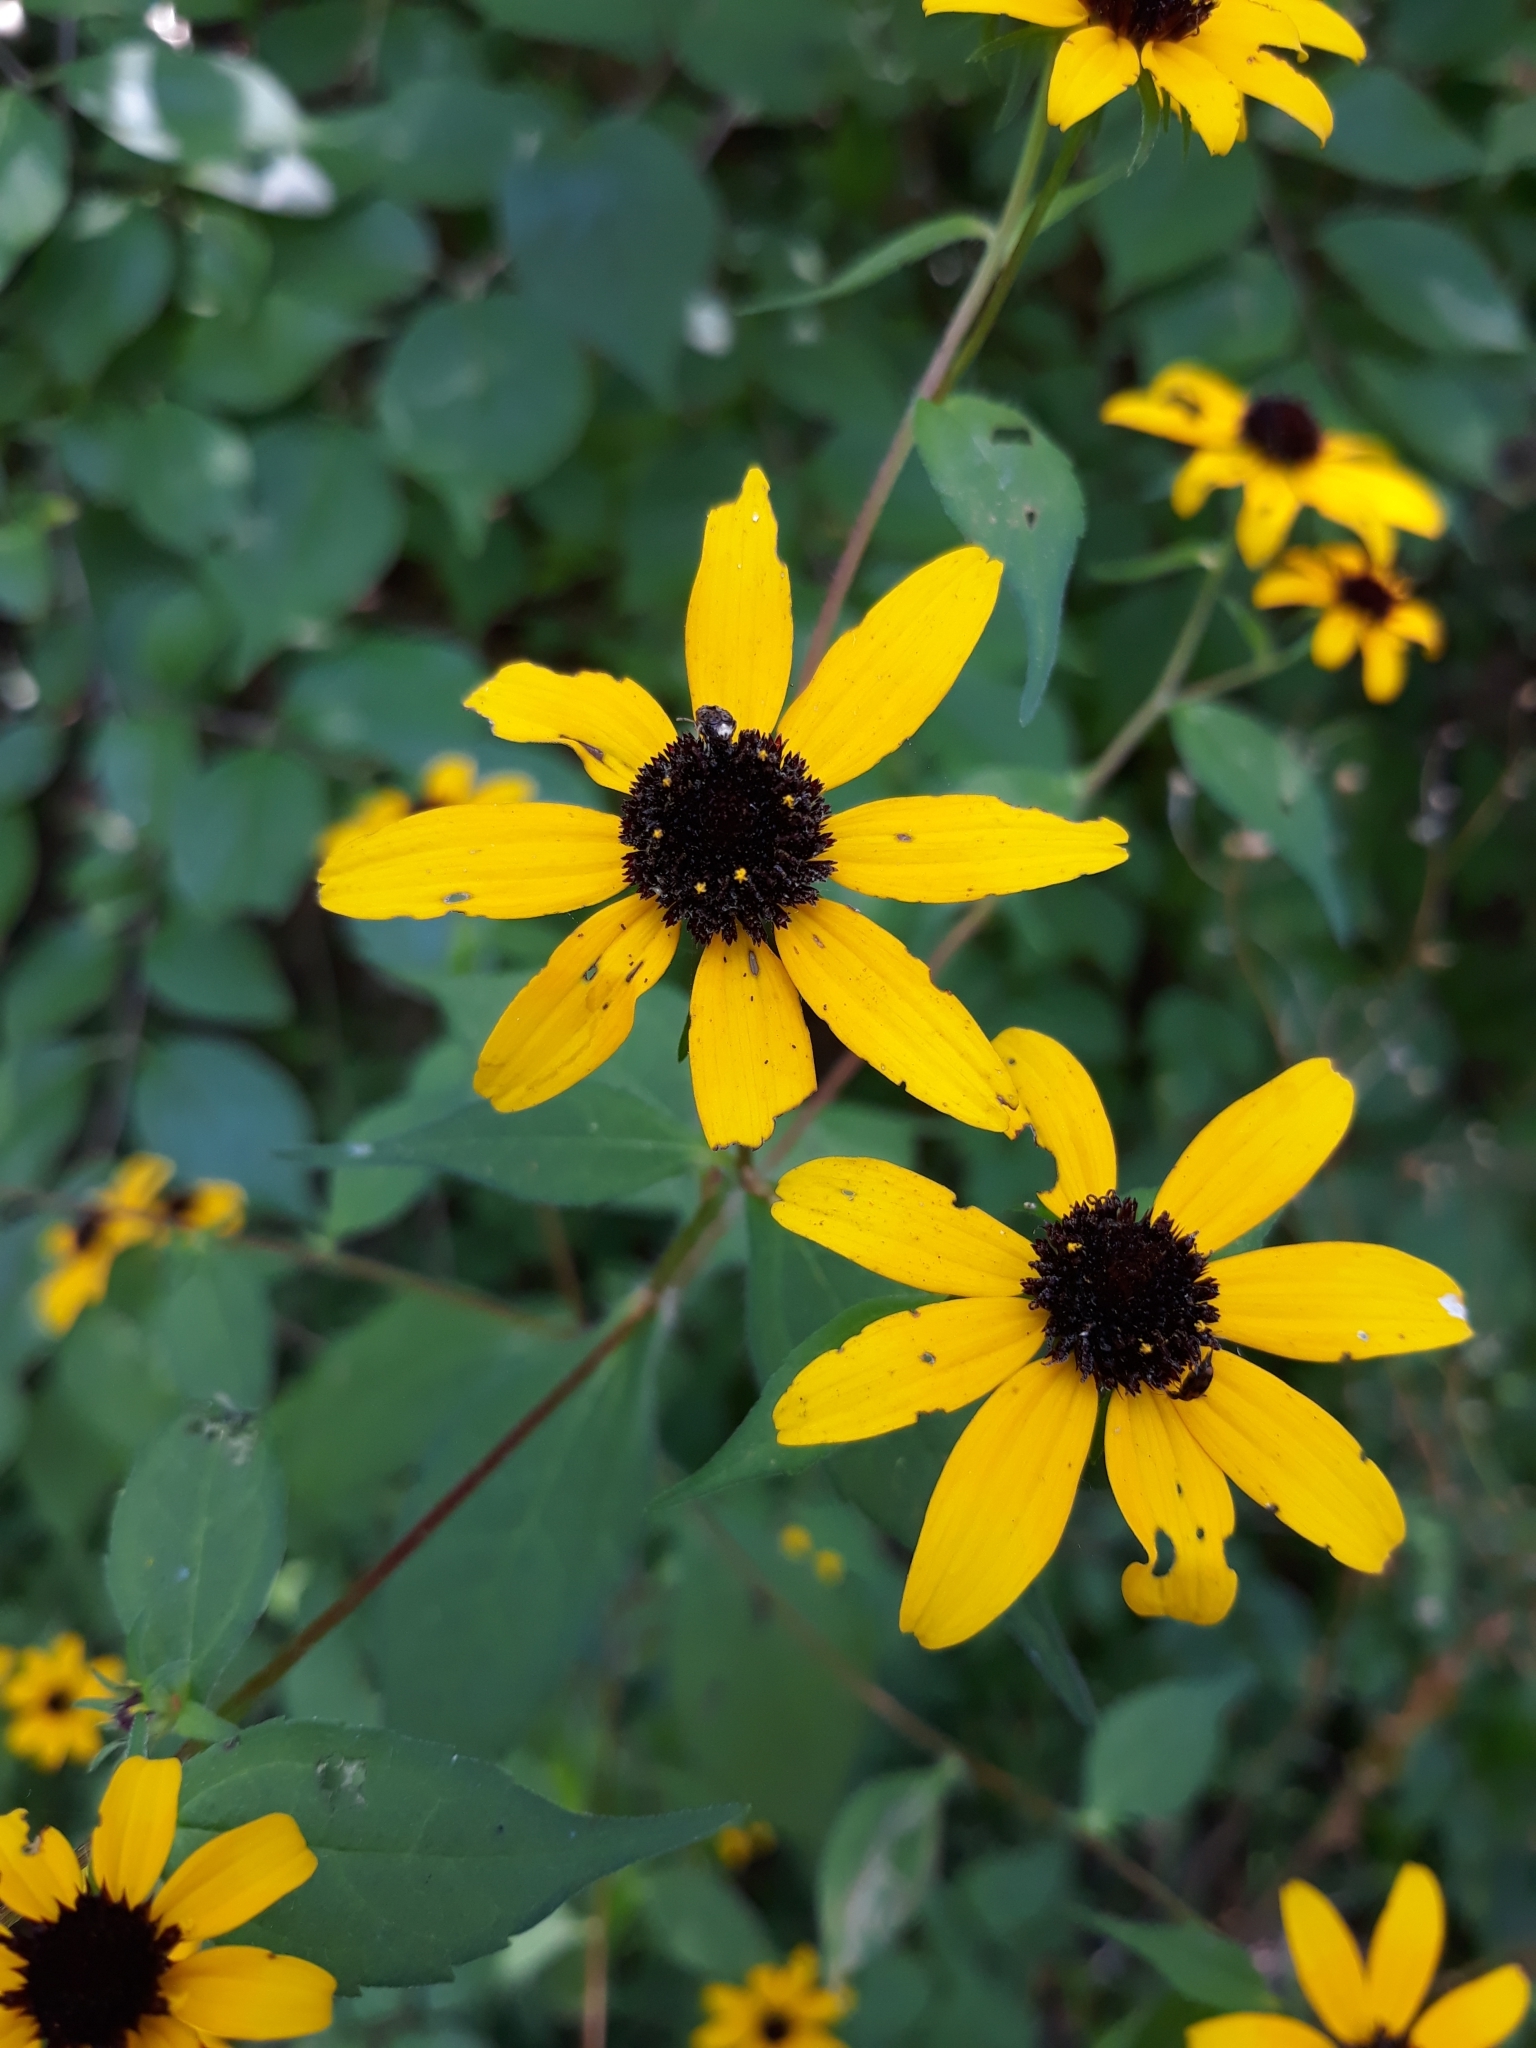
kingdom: Plantae
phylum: Tracheophyta
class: Magnoliopsida
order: Asterales
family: Asteraceae
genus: Rudbeckia
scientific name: Rudbeckia triloba
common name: Thin-leaved coneflower
